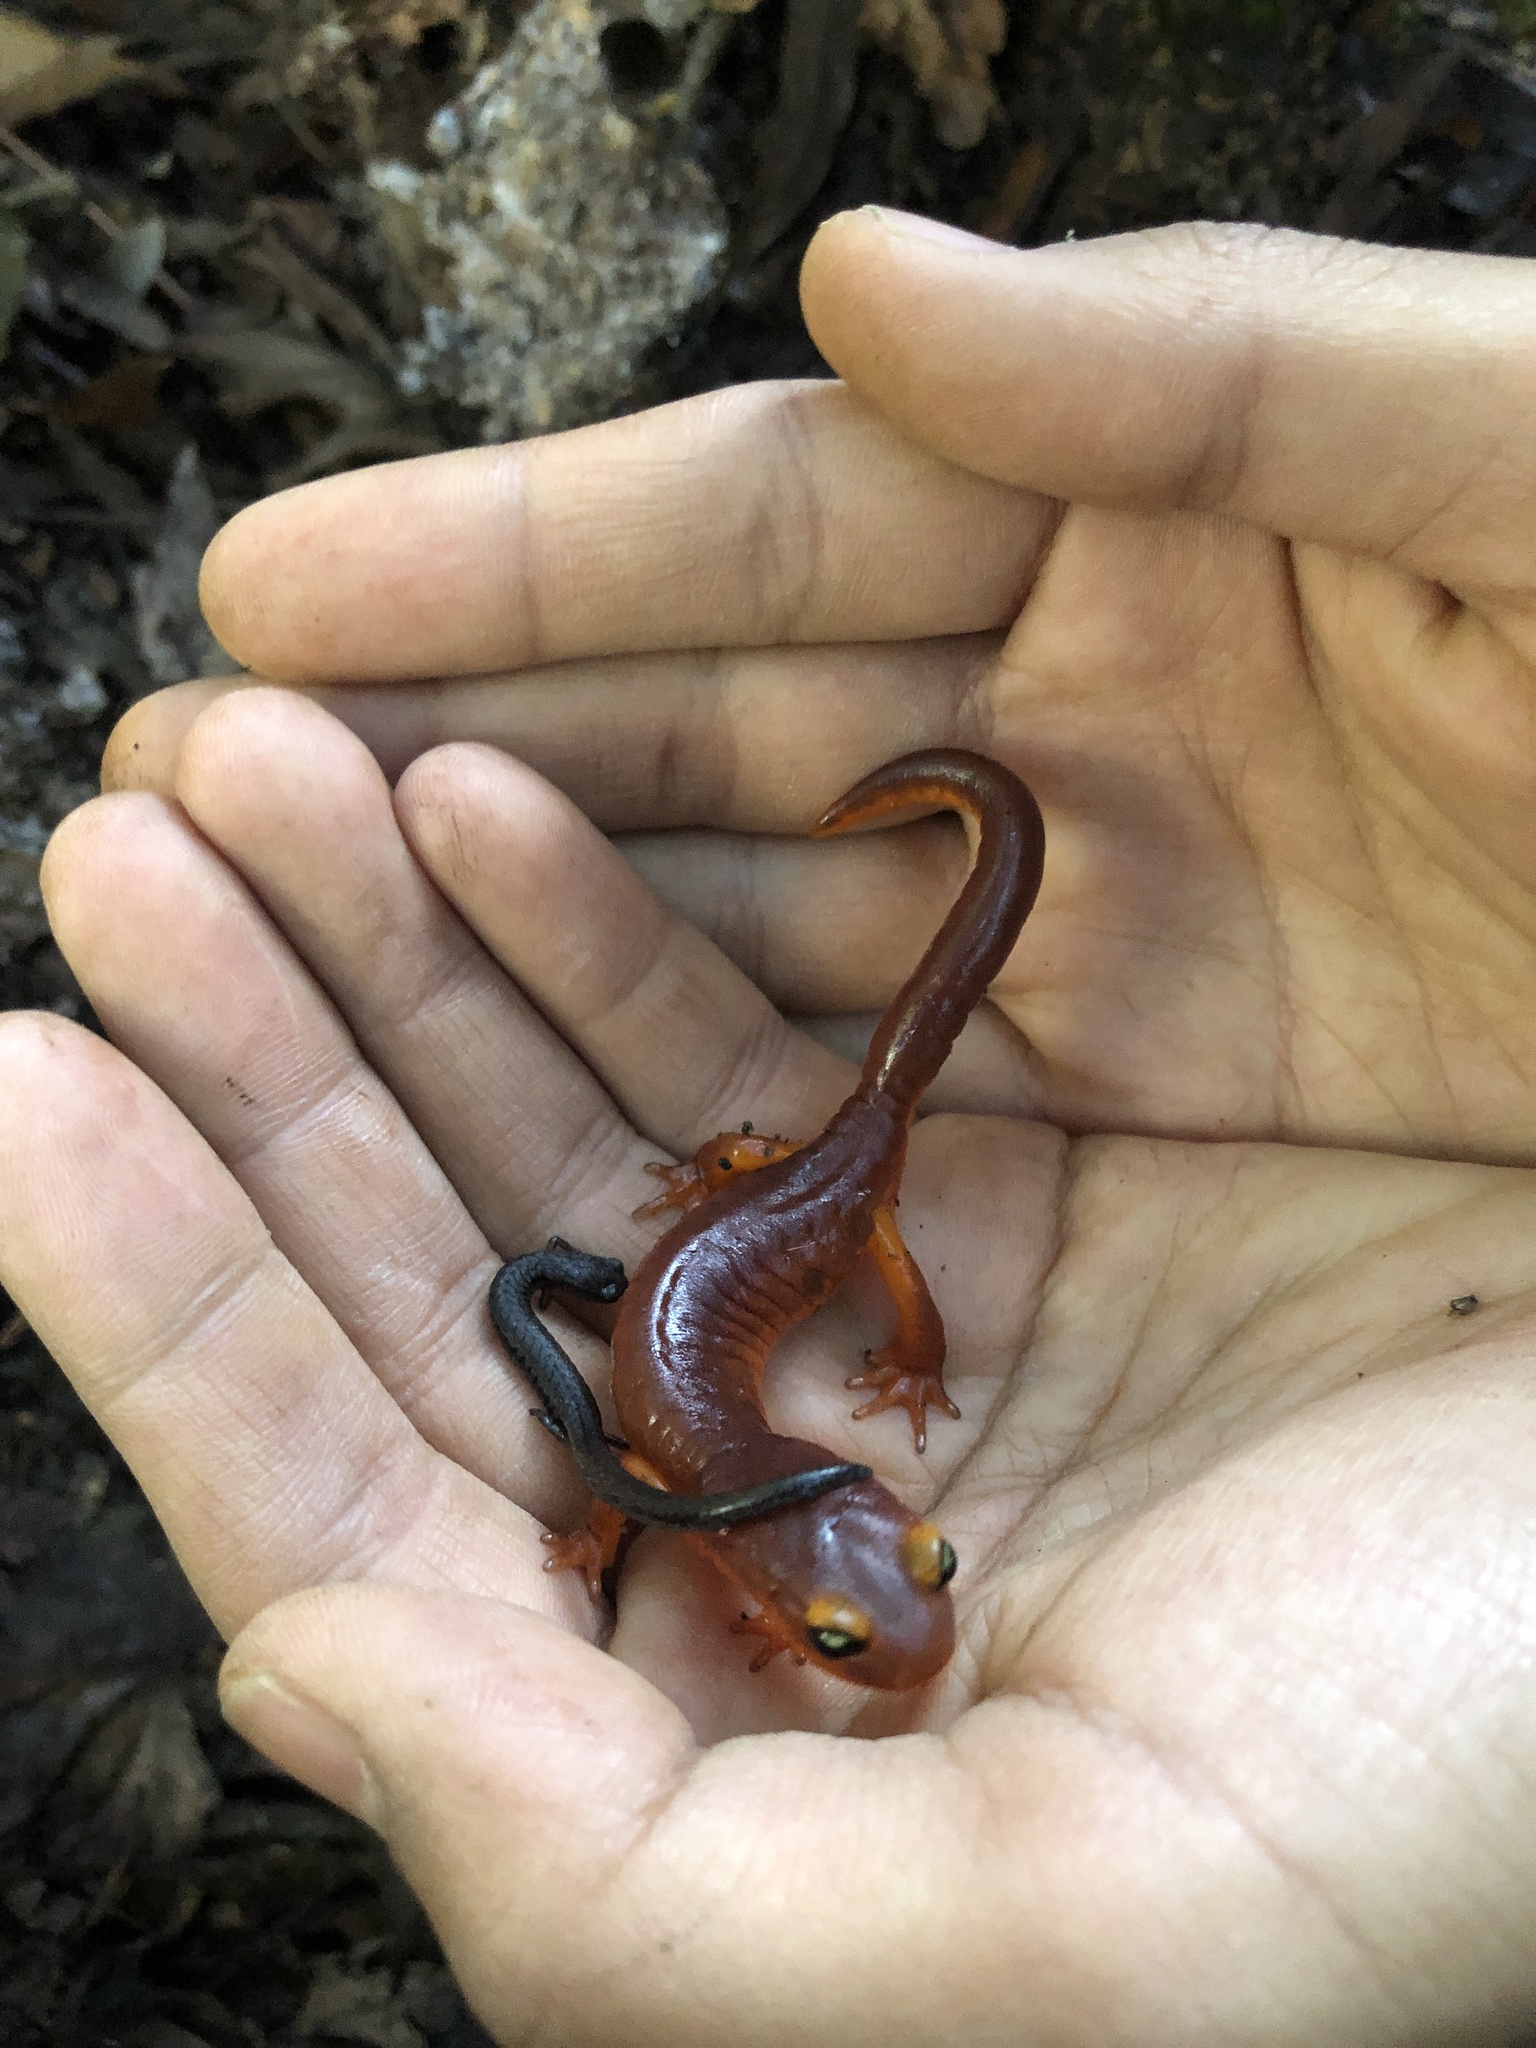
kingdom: Animalia
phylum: Chordata
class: Amphibia
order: Caudata
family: Plethodontidae
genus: Batrachoseps
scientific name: Batrachoseps attenuatus
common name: California slender salamander
